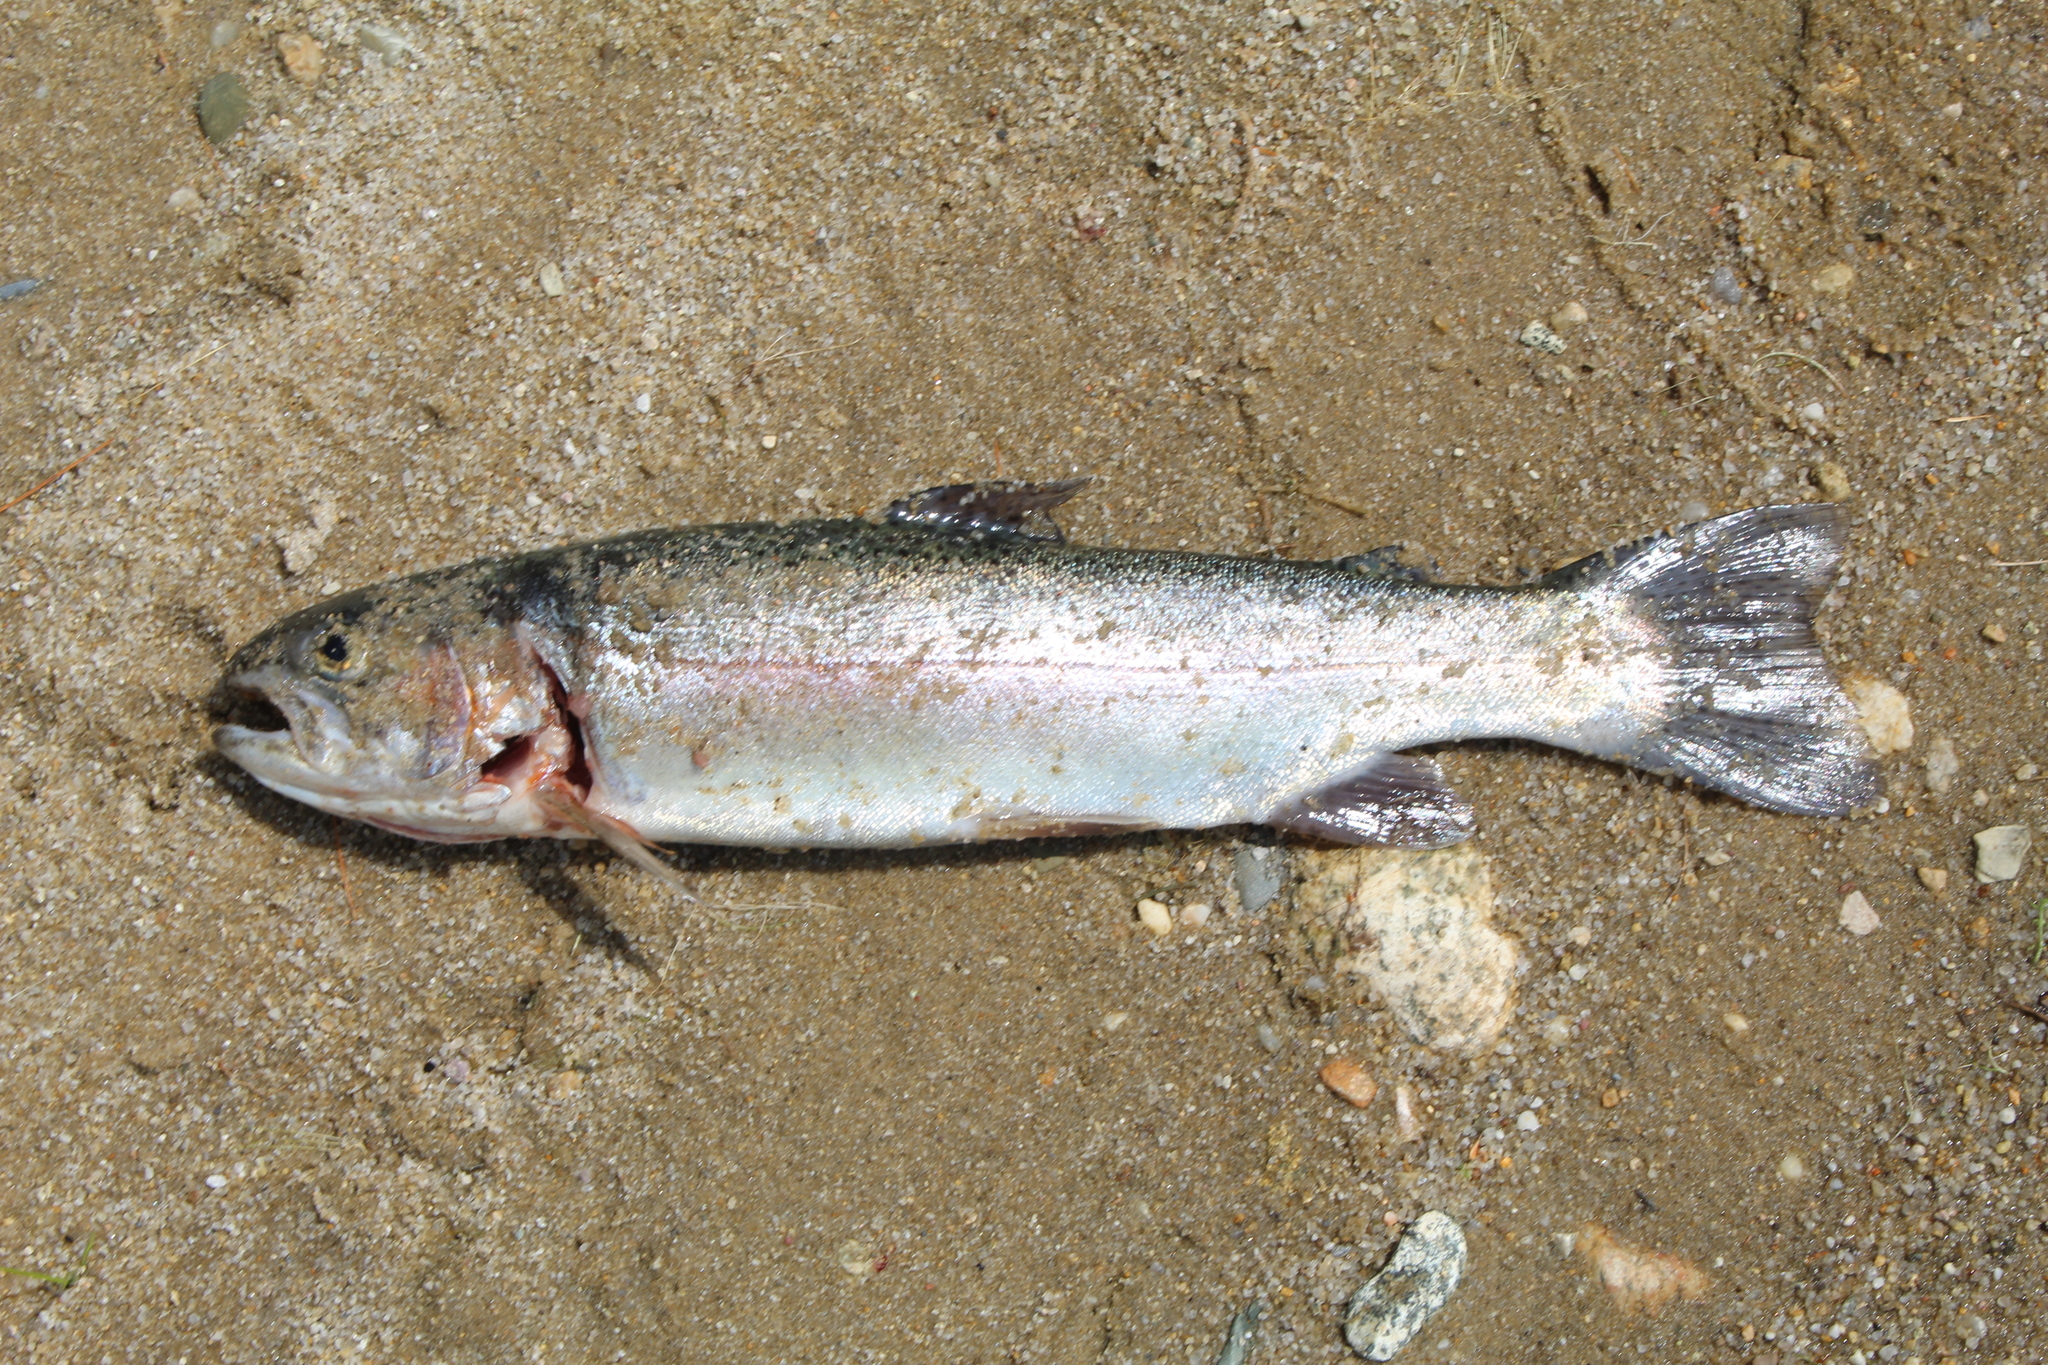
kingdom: Animalia
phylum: Chordata
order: Salmoniformes
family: Salmonidae
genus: Oncorhynchus
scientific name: Oncorhynchus mykiss
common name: Rainbow trout
